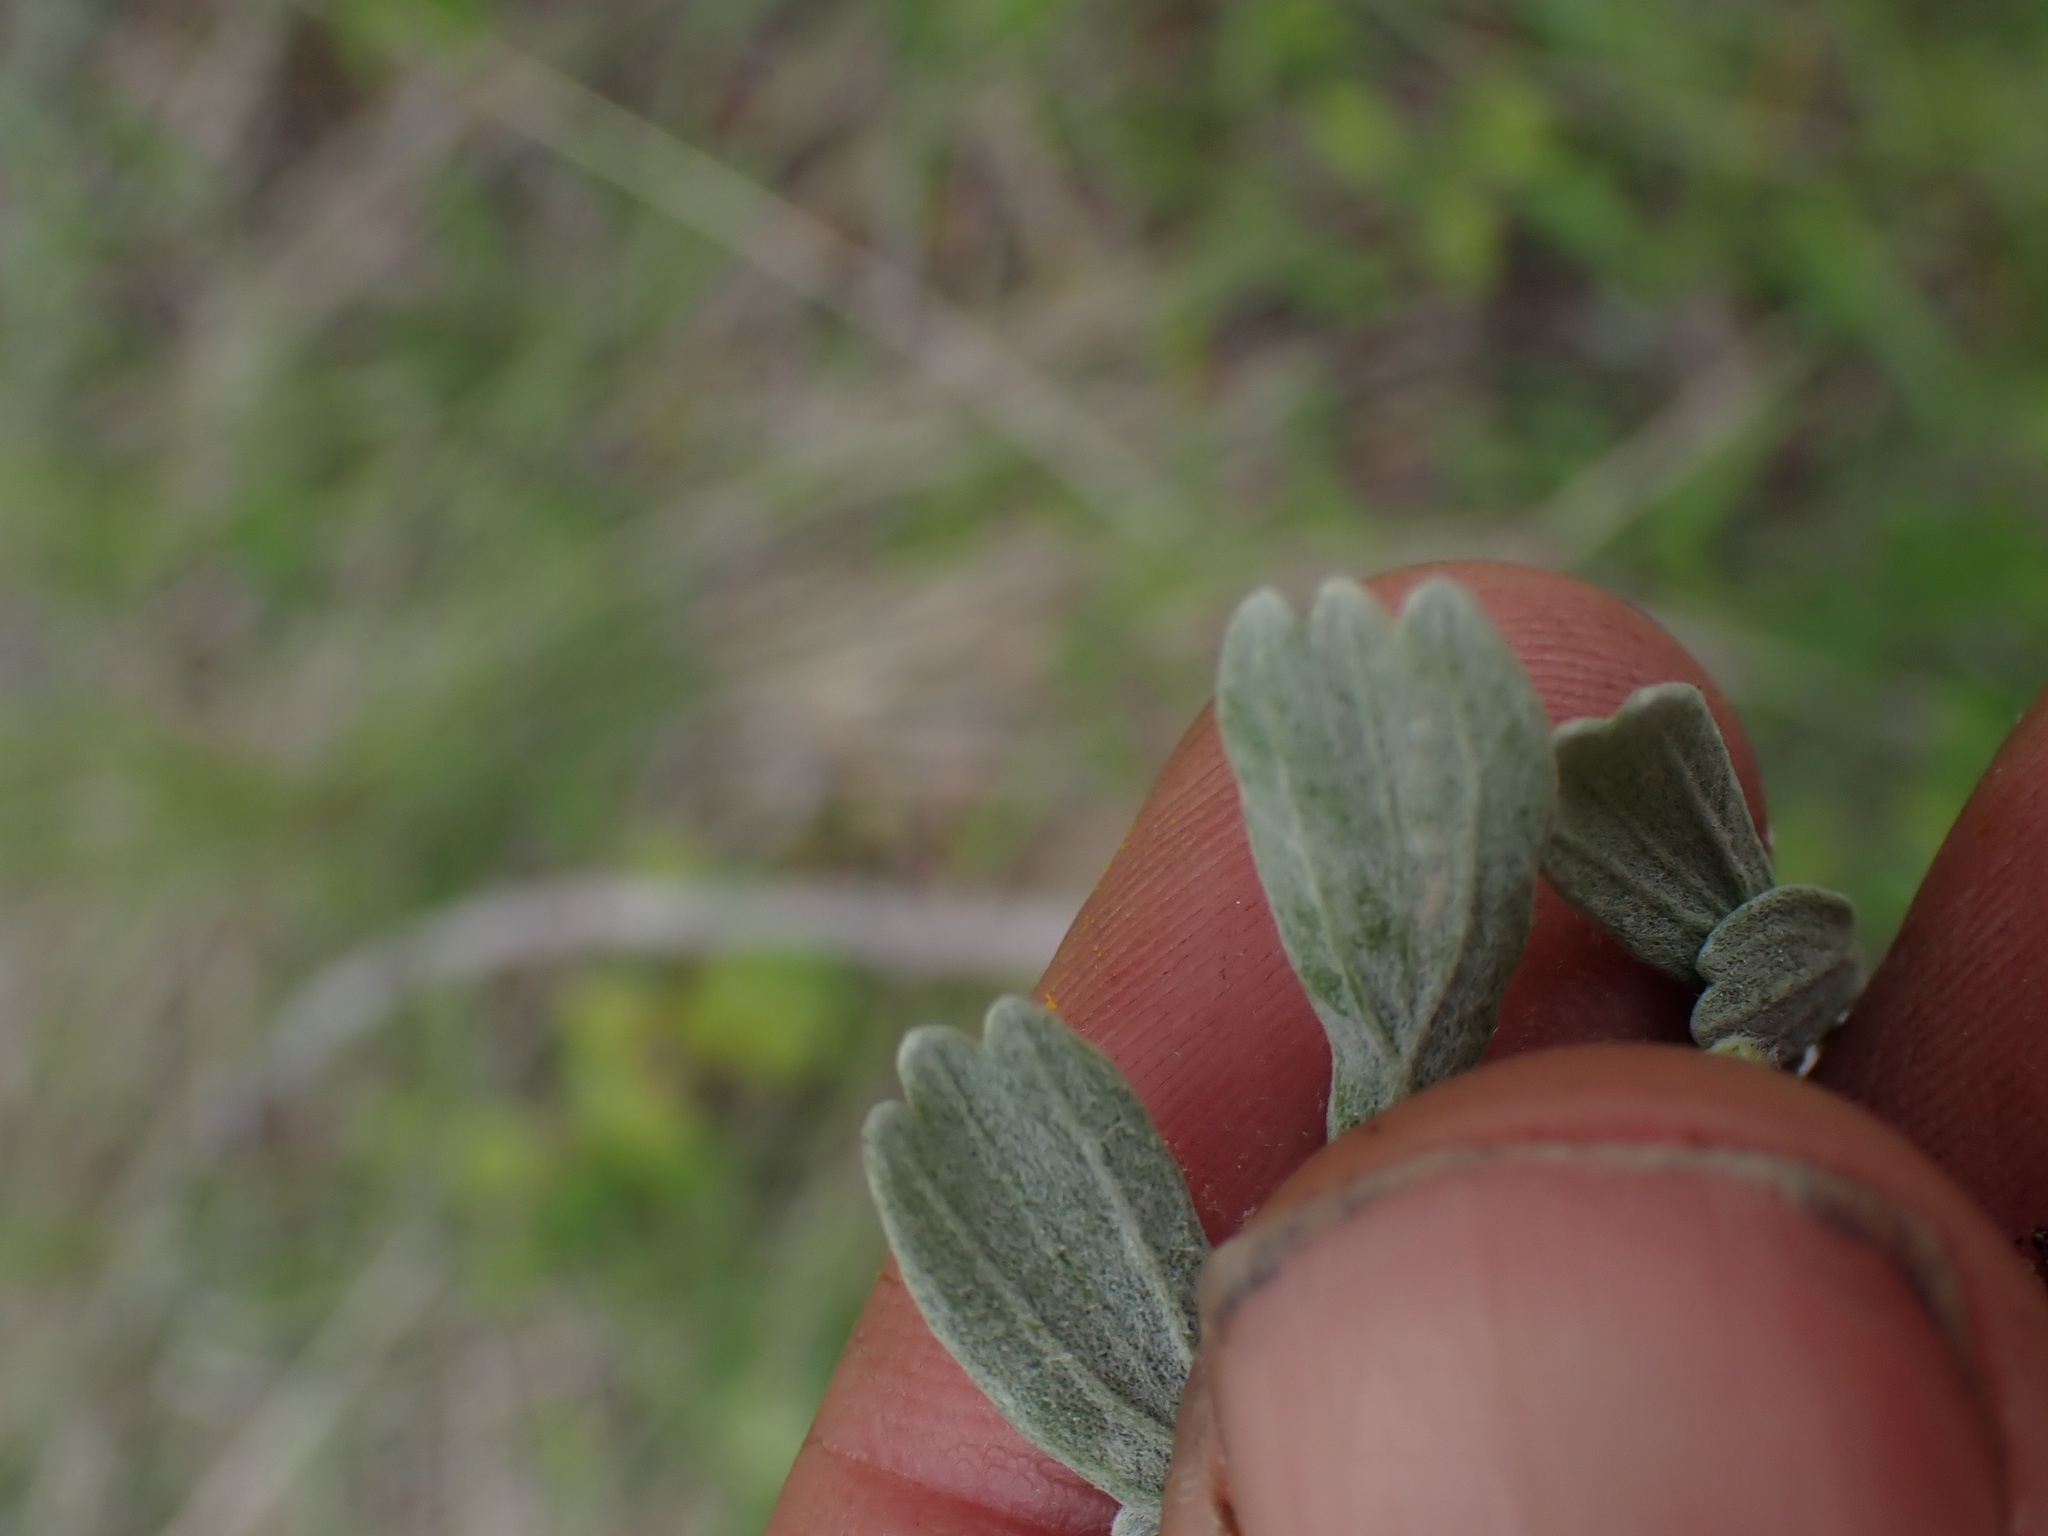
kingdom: Plantae
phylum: Tracheophyta
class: Magnoliopsida
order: Asterales
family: Asteraceae
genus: Artemisia
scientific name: Artemisia tridentata
